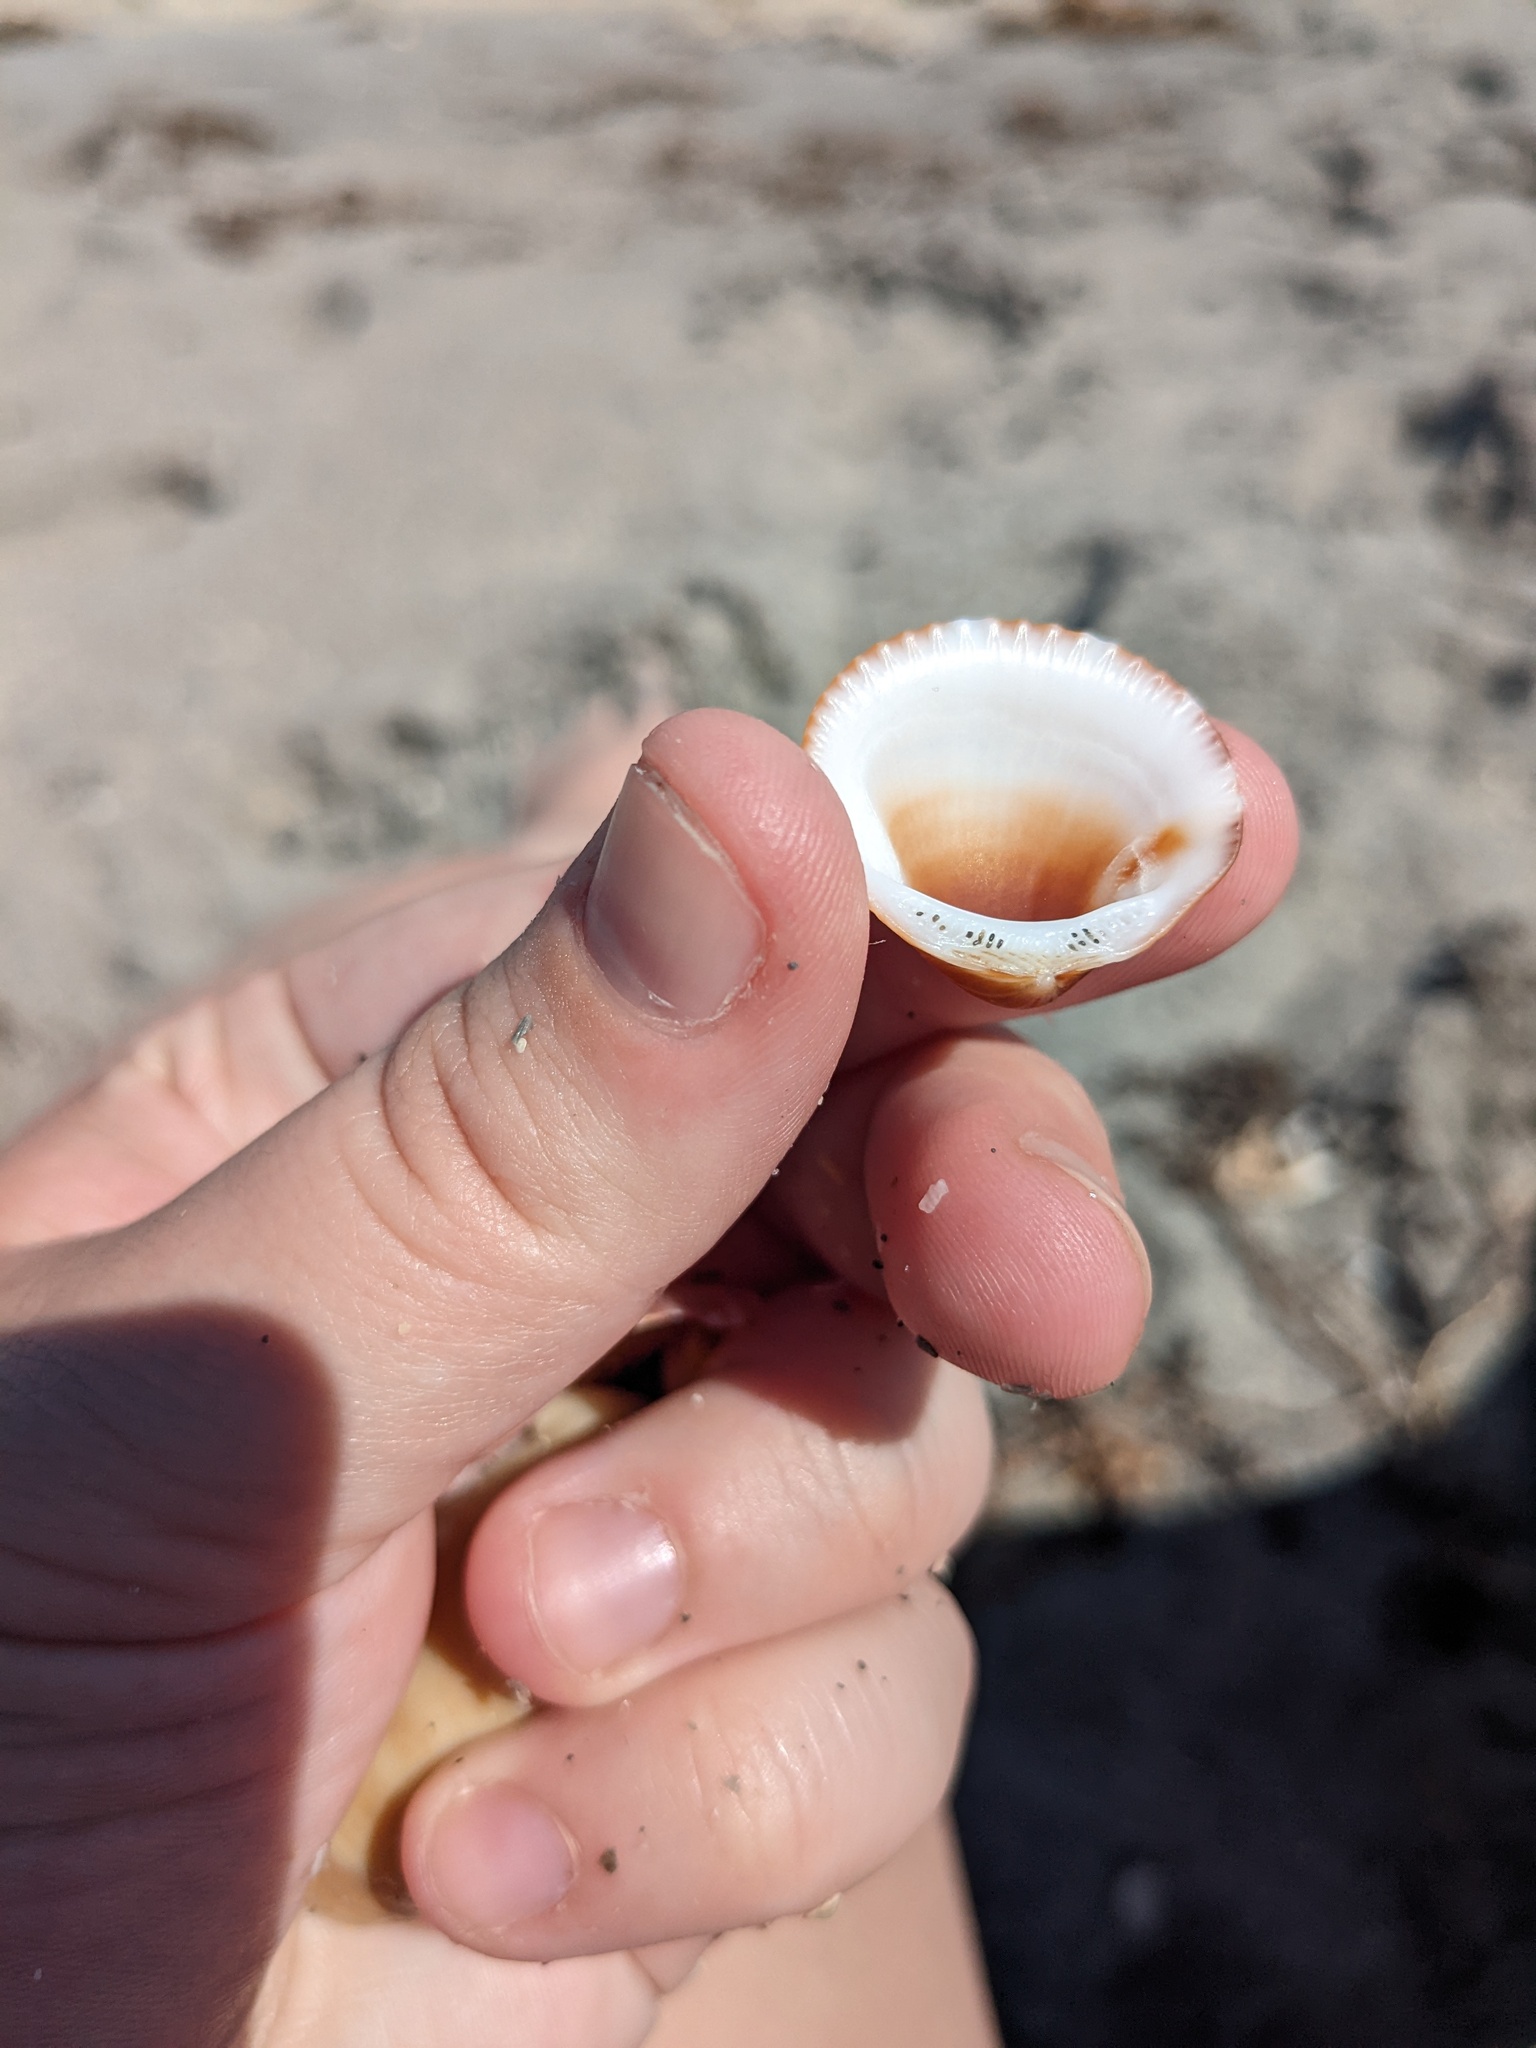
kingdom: Animalia
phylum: Mollusca
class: Bivalvia
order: Arcida
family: Glycymerididae
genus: Glycymeris
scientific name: Glycymeris spectralis
